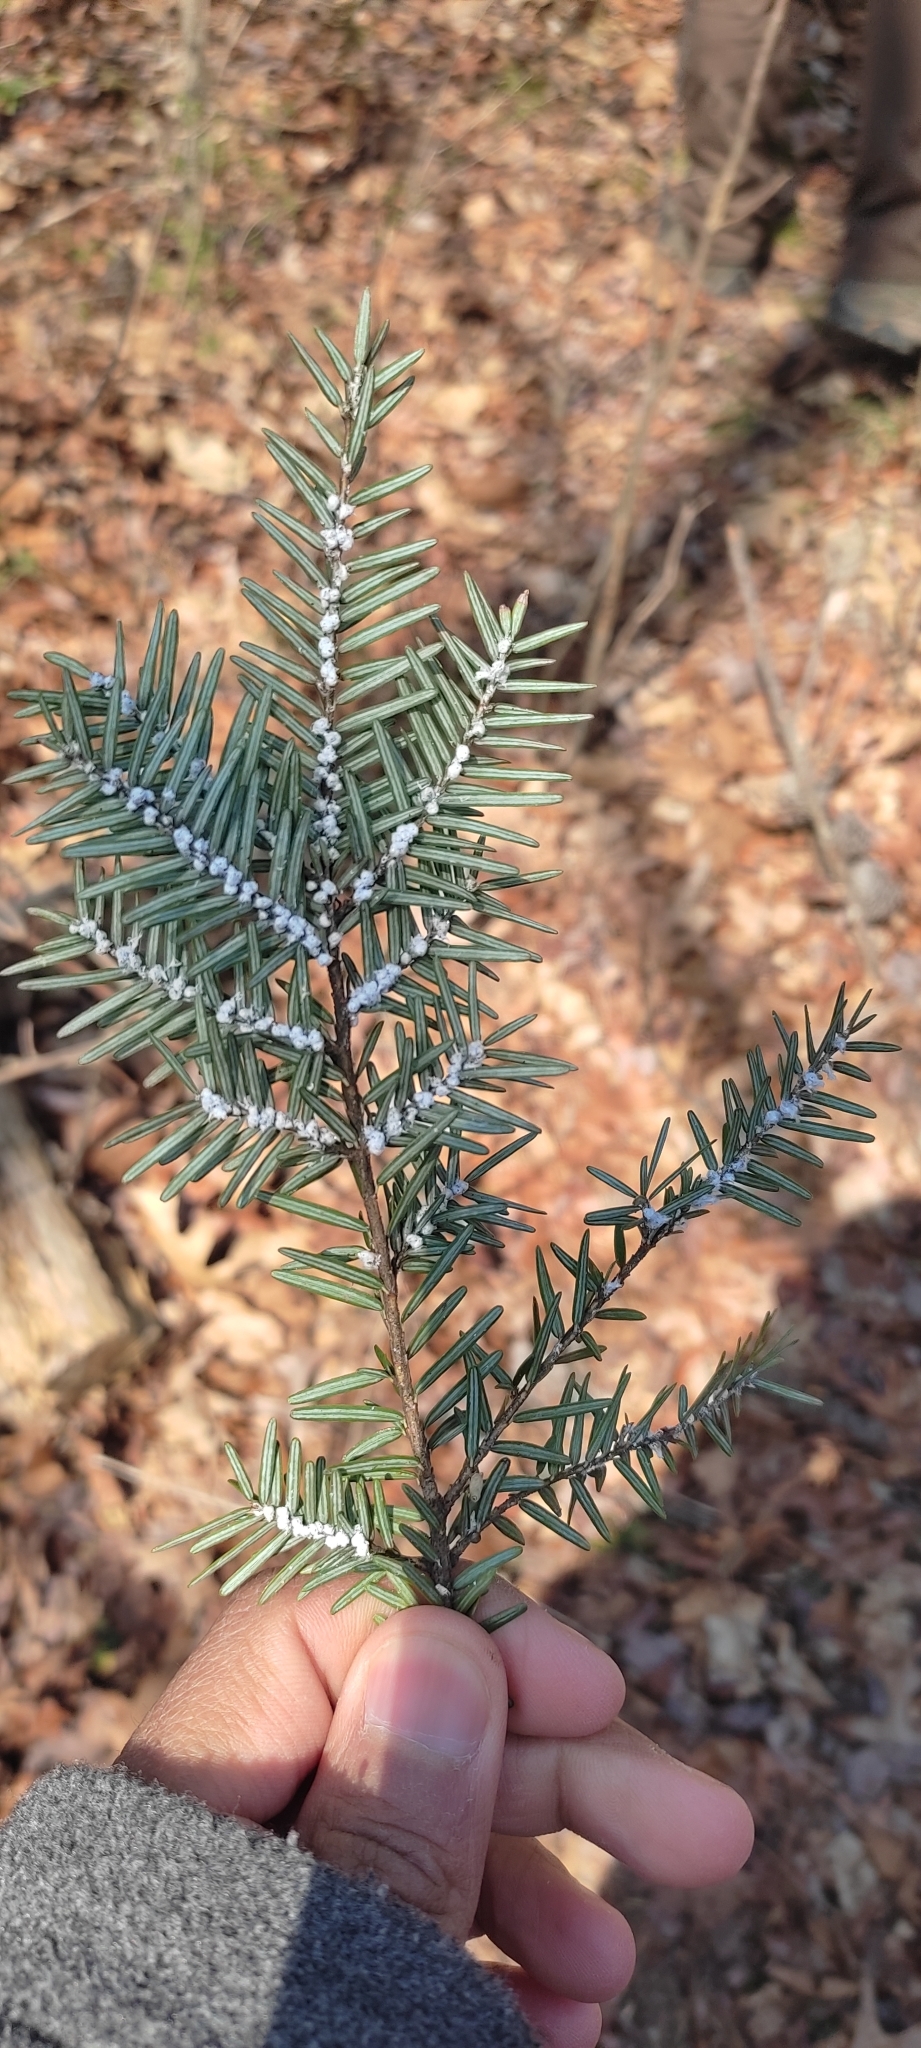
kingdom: Animalia
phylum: Arthropoda
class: Insecta
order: Hemiptera
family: Adelgidae
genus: Adelges
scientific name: Adelges tsugae
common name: Hemlock woolly adelgid
